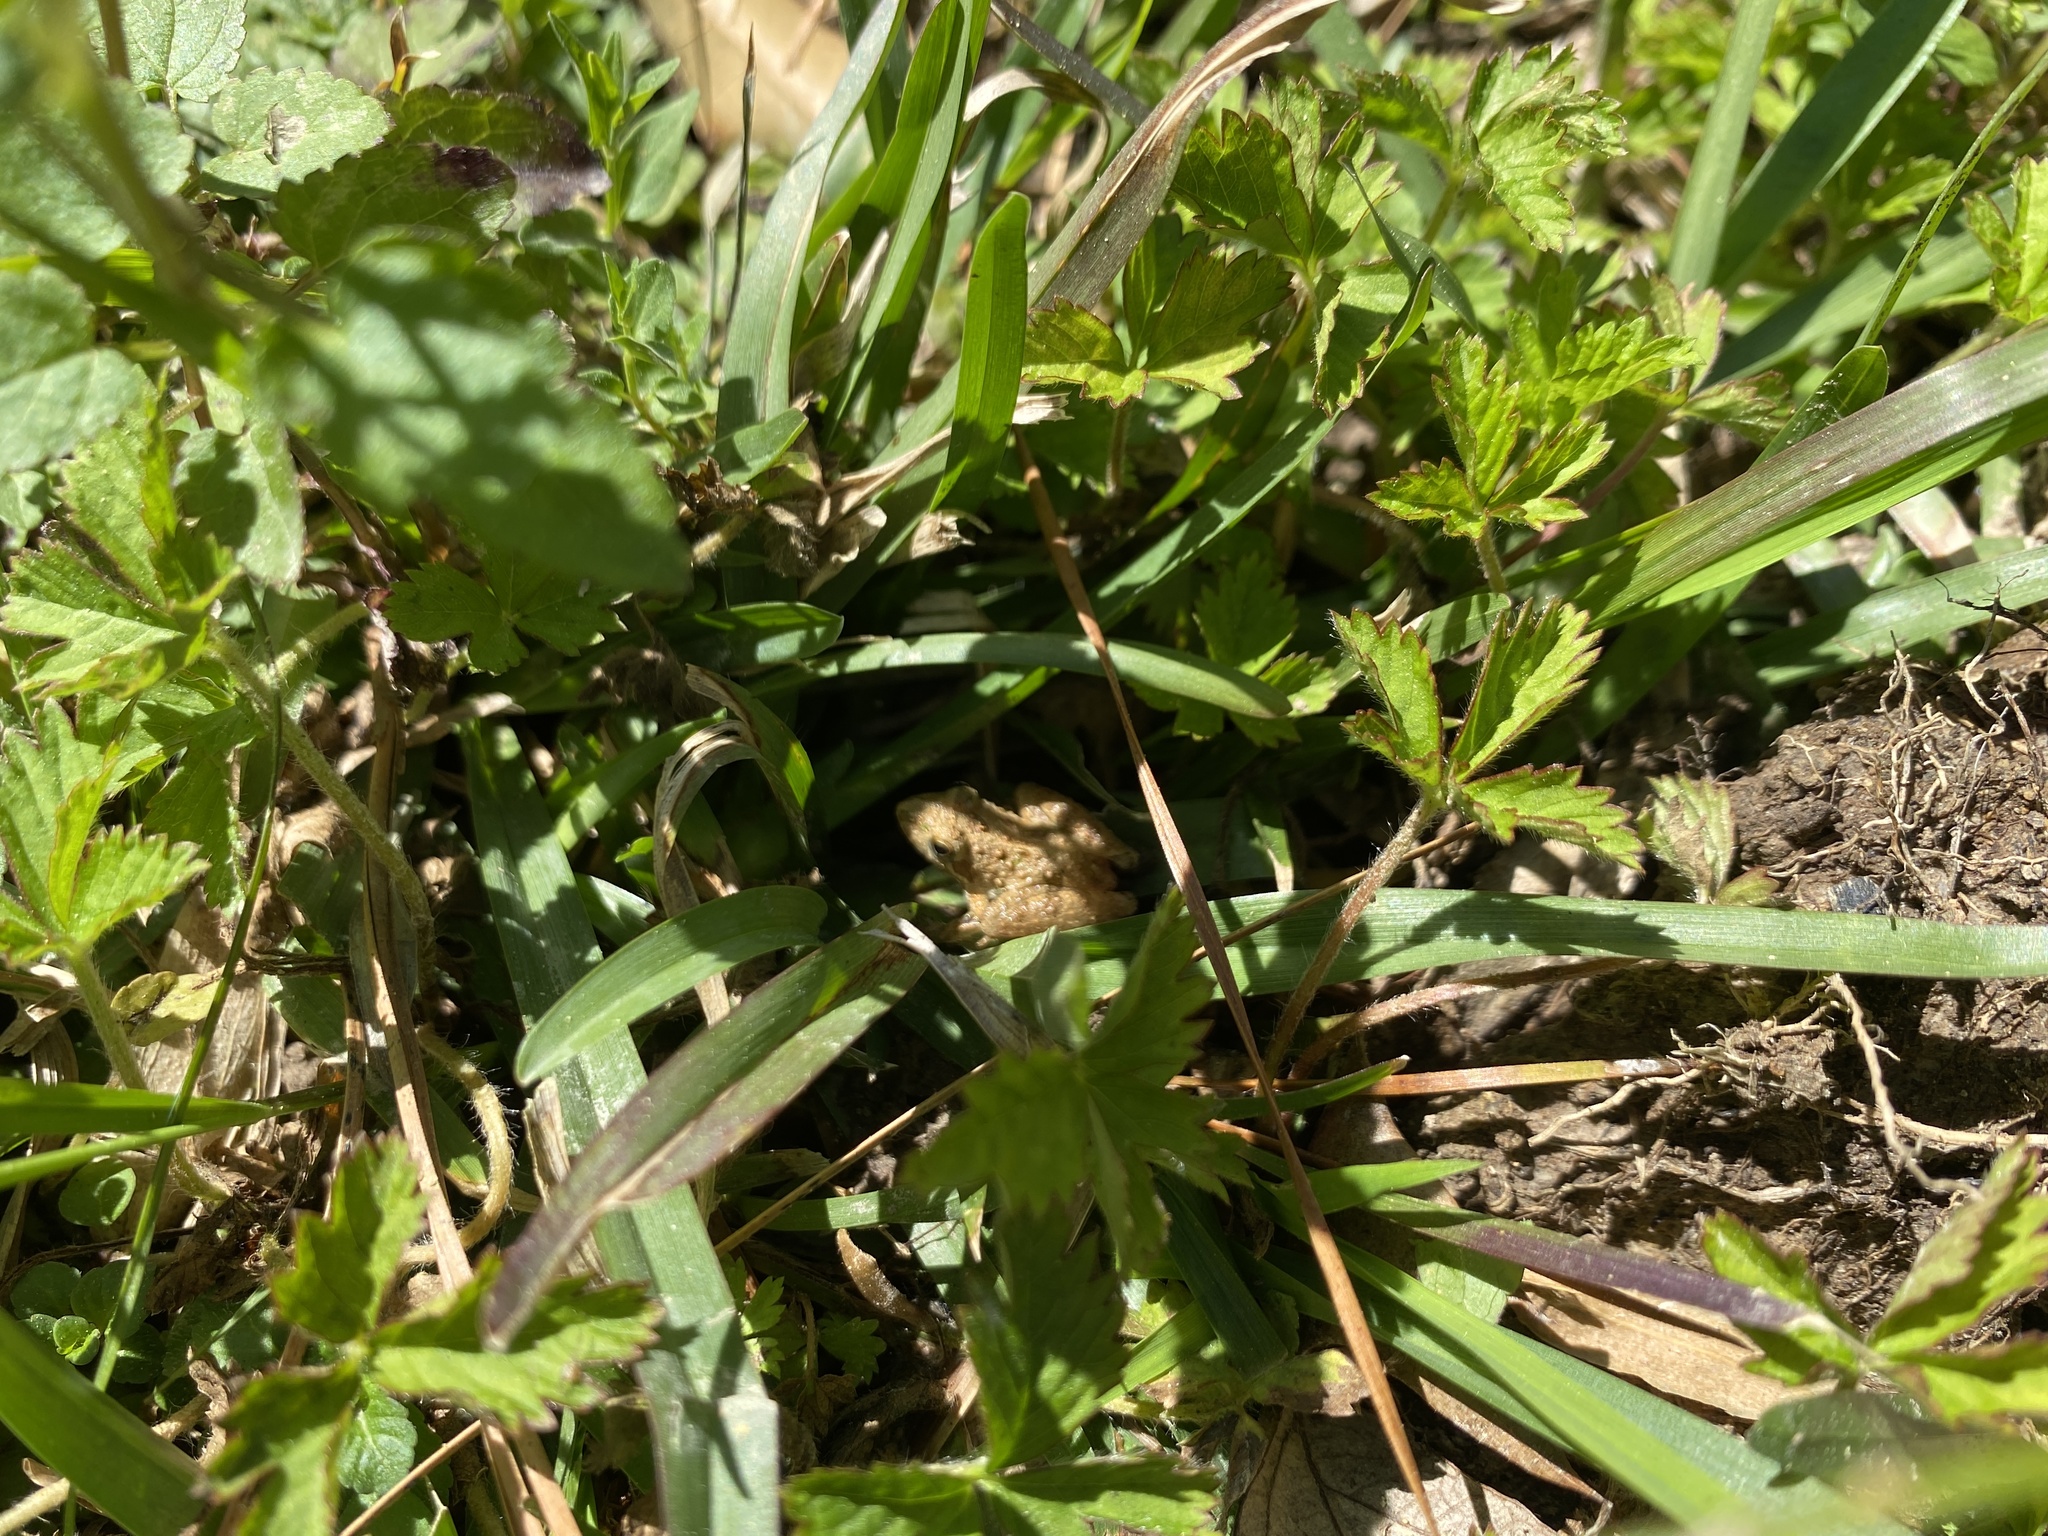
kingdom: Animalia
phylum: Chordata
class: Amphibia
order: Anura
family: Hylidae
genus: Acris
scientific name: Acris blanchardi
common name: Blanchard's cricket frog
